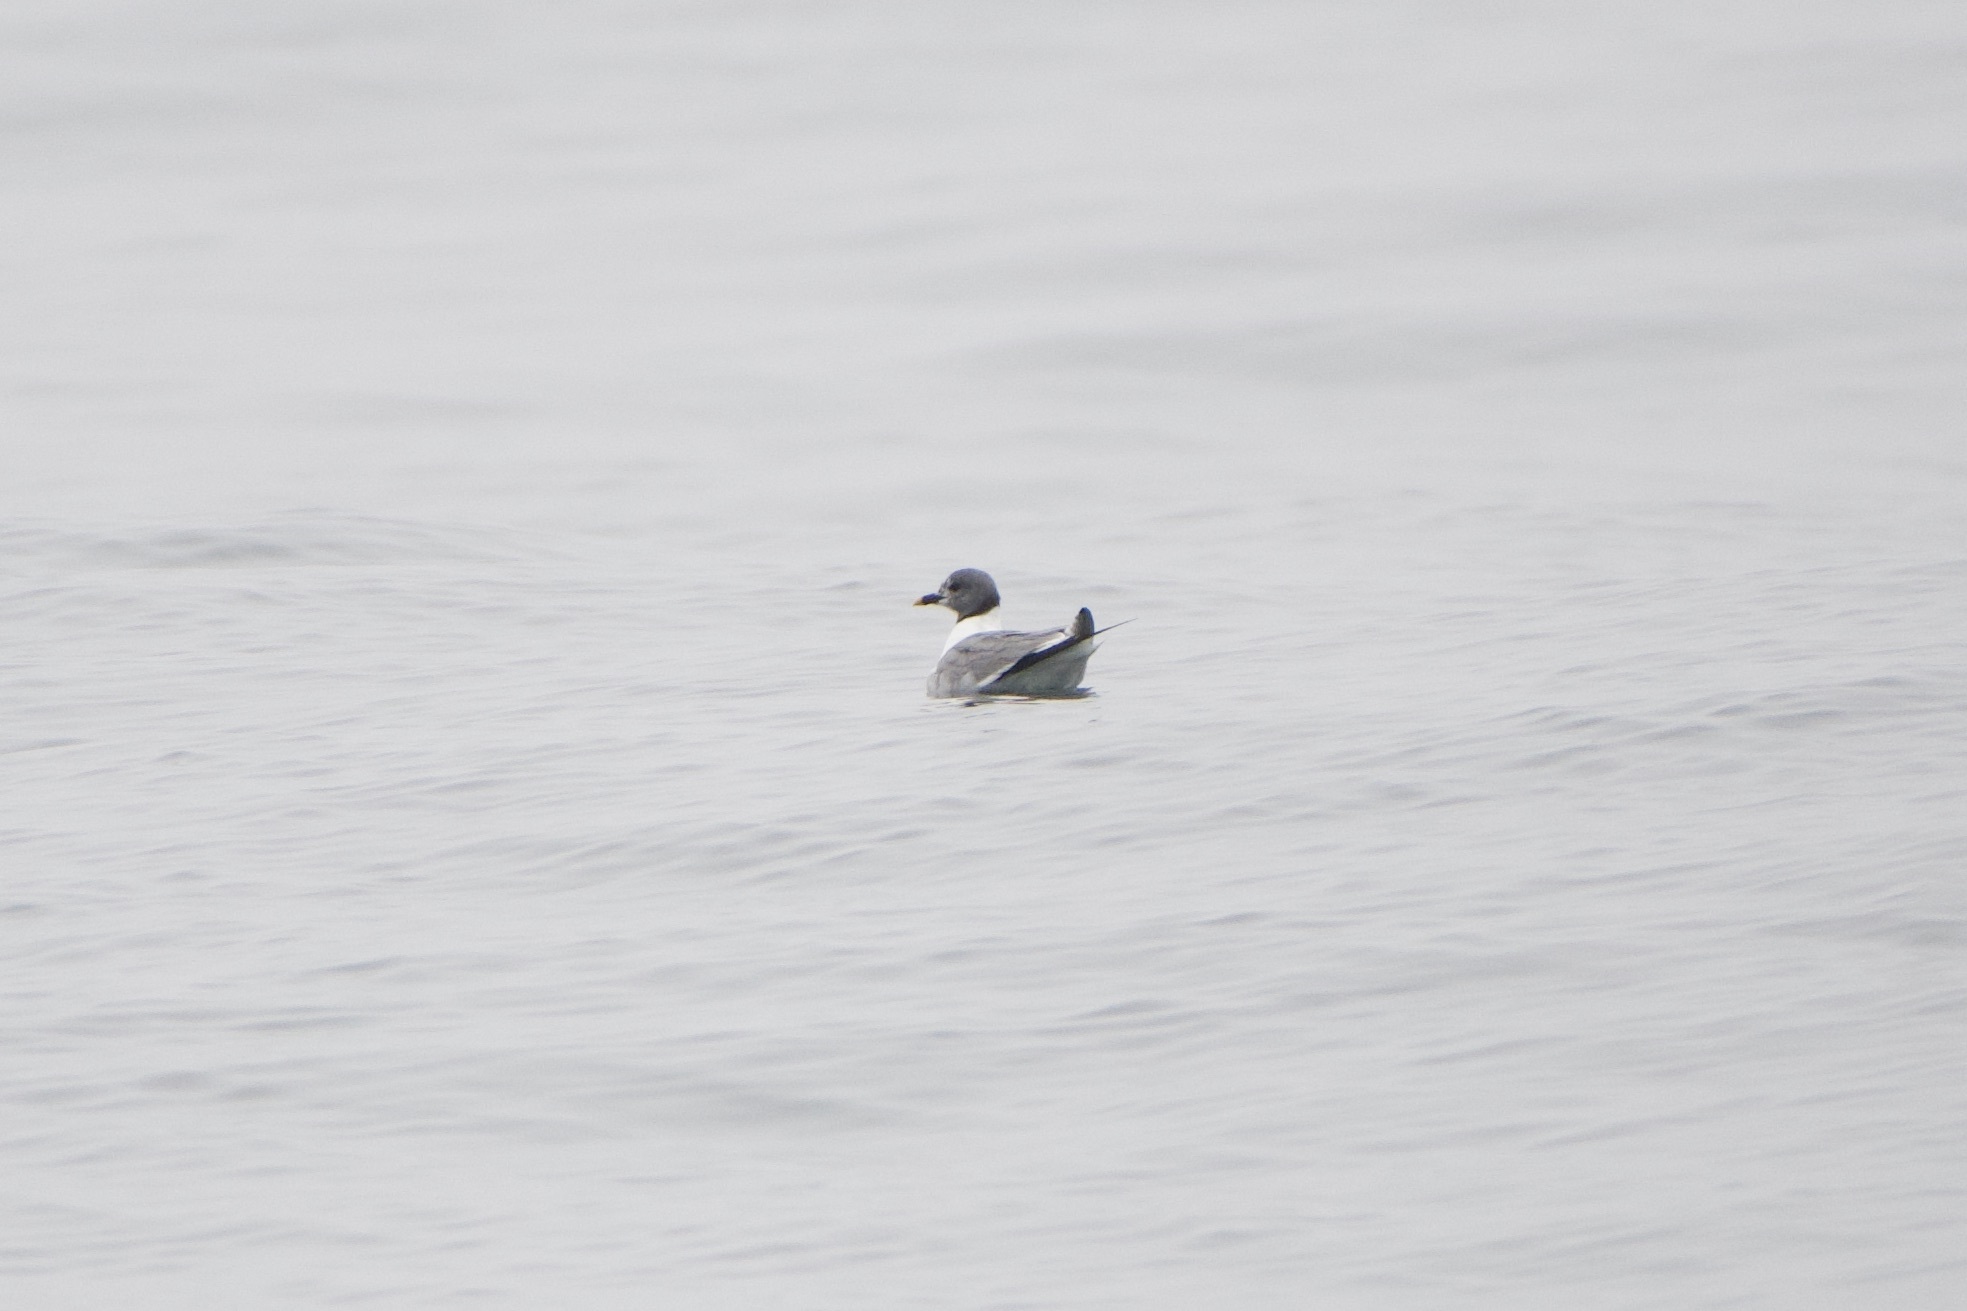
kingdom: Animalia
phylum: Chordata
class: Aves
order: Charadriiformes
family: Laridae
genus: Xema
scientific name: Xema sabini
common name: Sabine's gull
